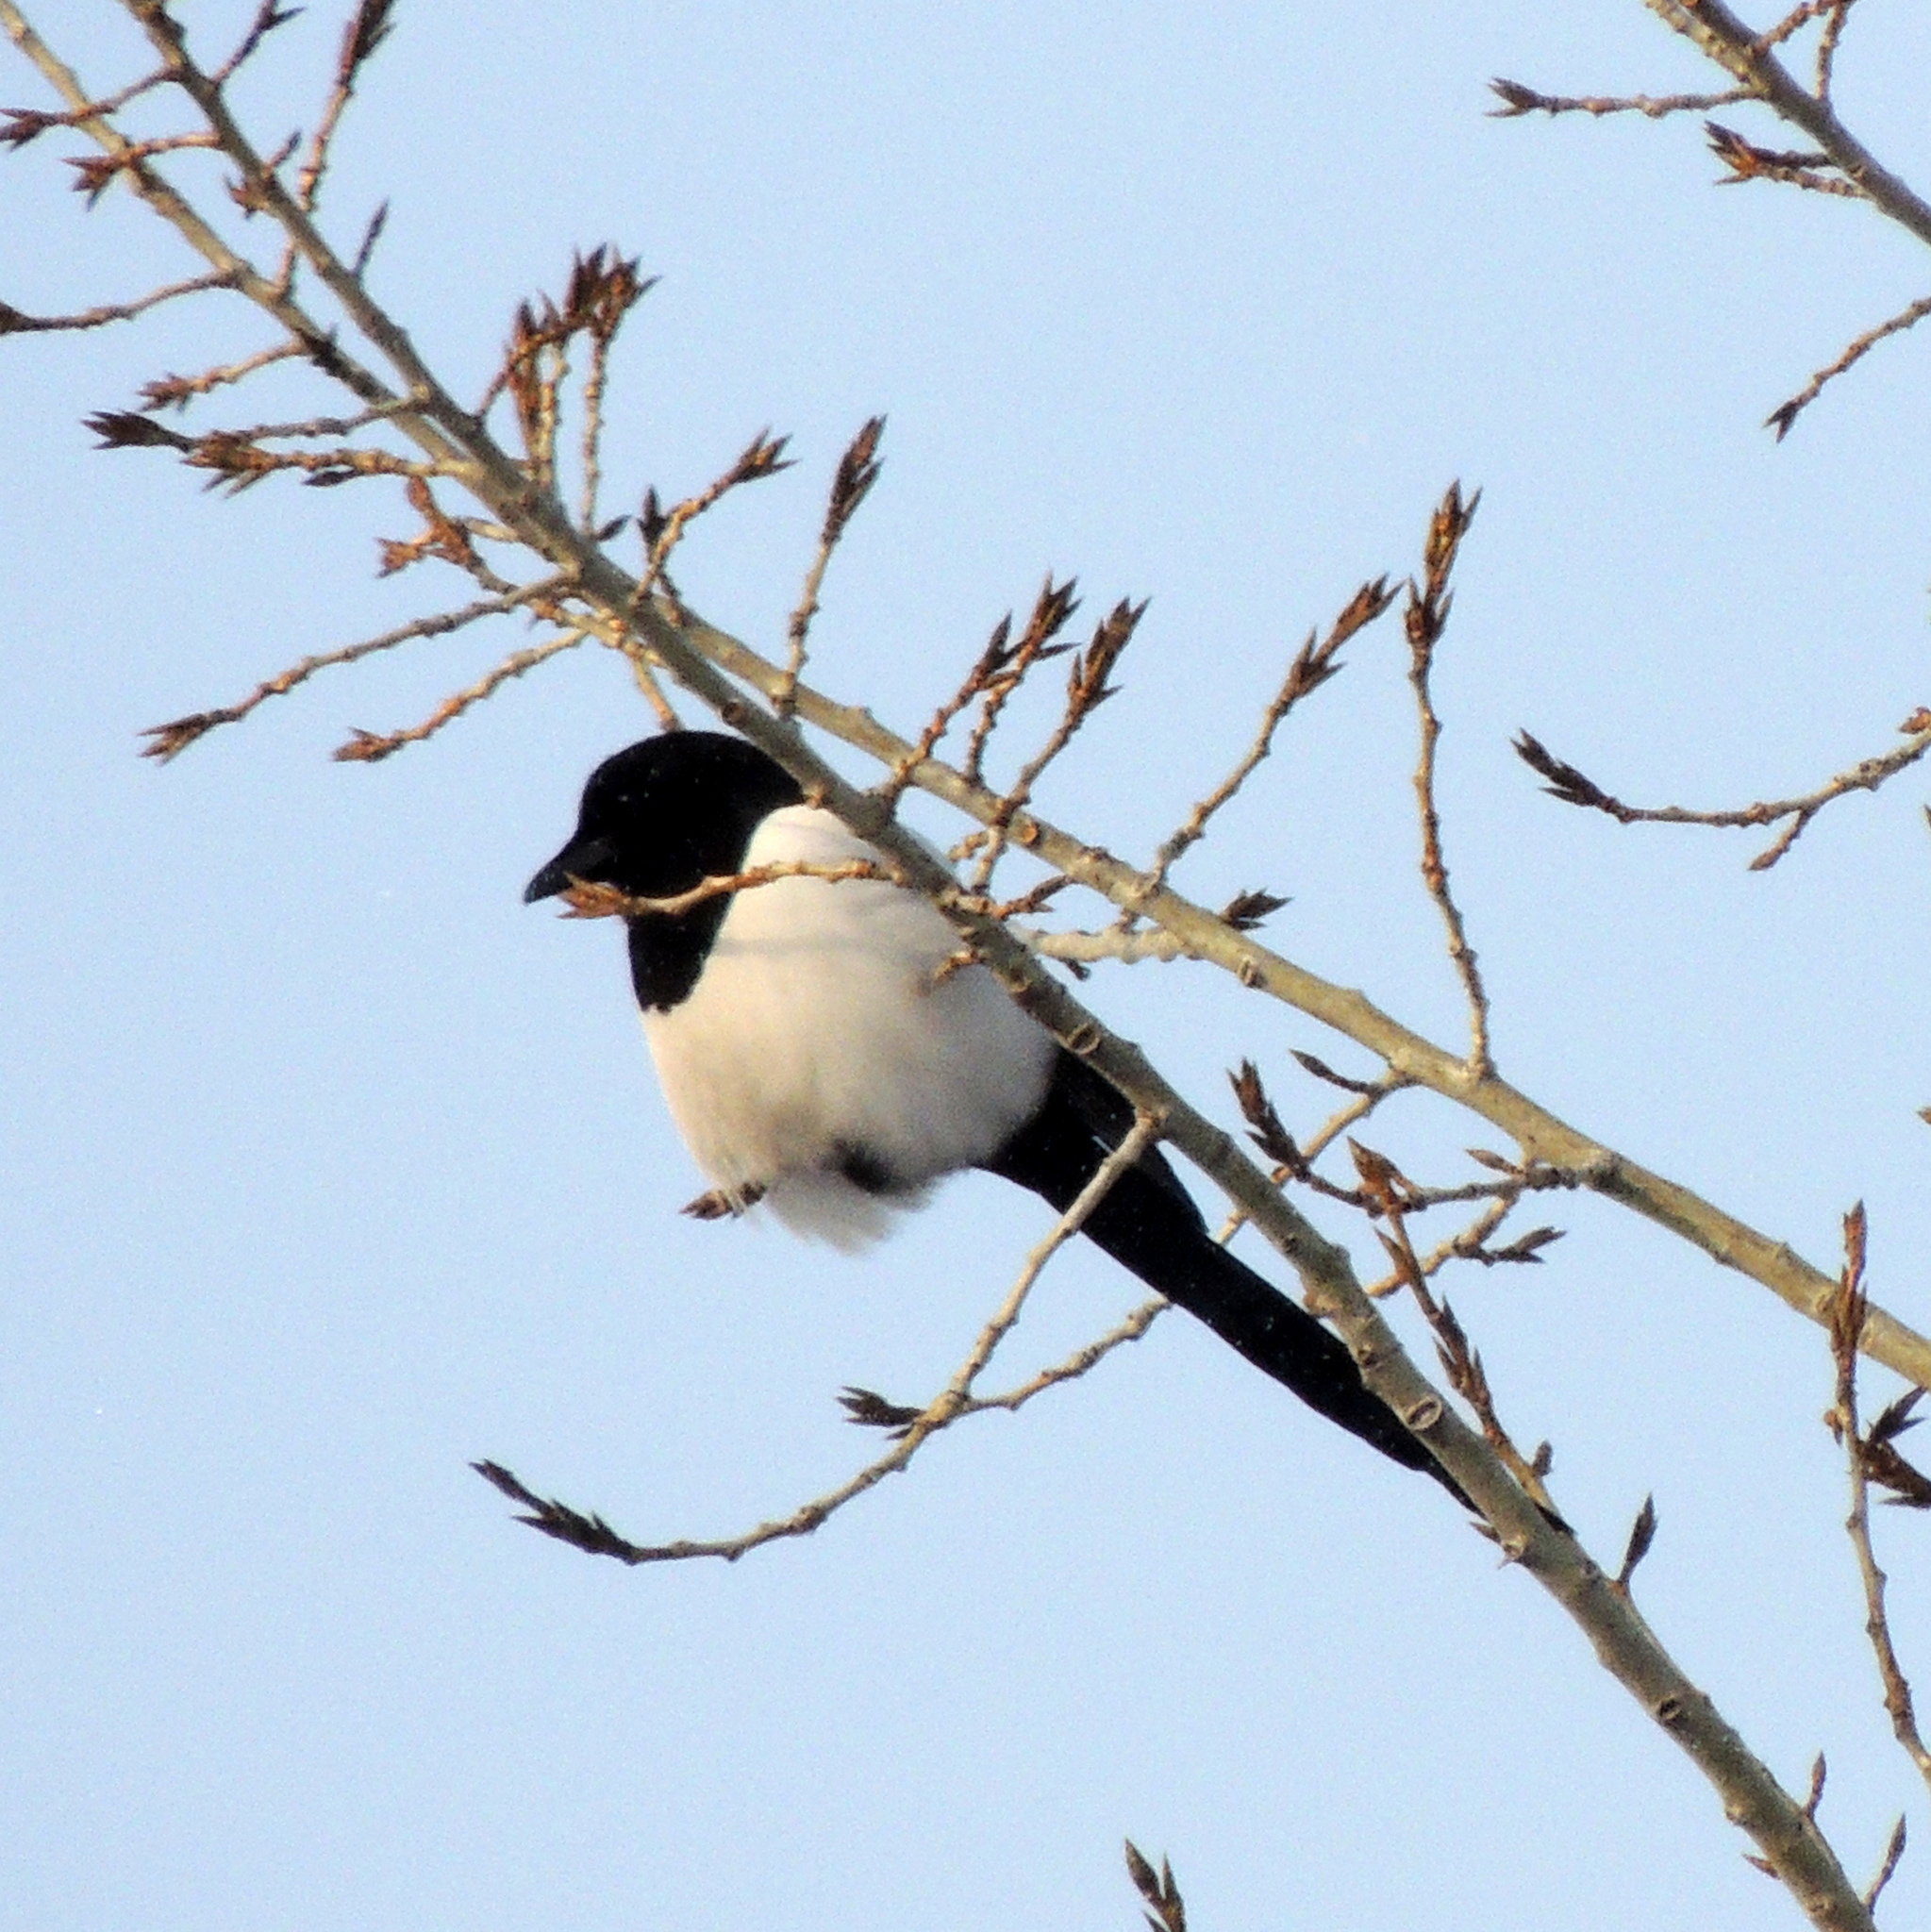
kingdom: Animalia
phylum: Chordata
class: Aves
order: Passeriformes
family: Corvidae
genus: Pica
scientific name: Pica pica
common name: Eurasian magpie
